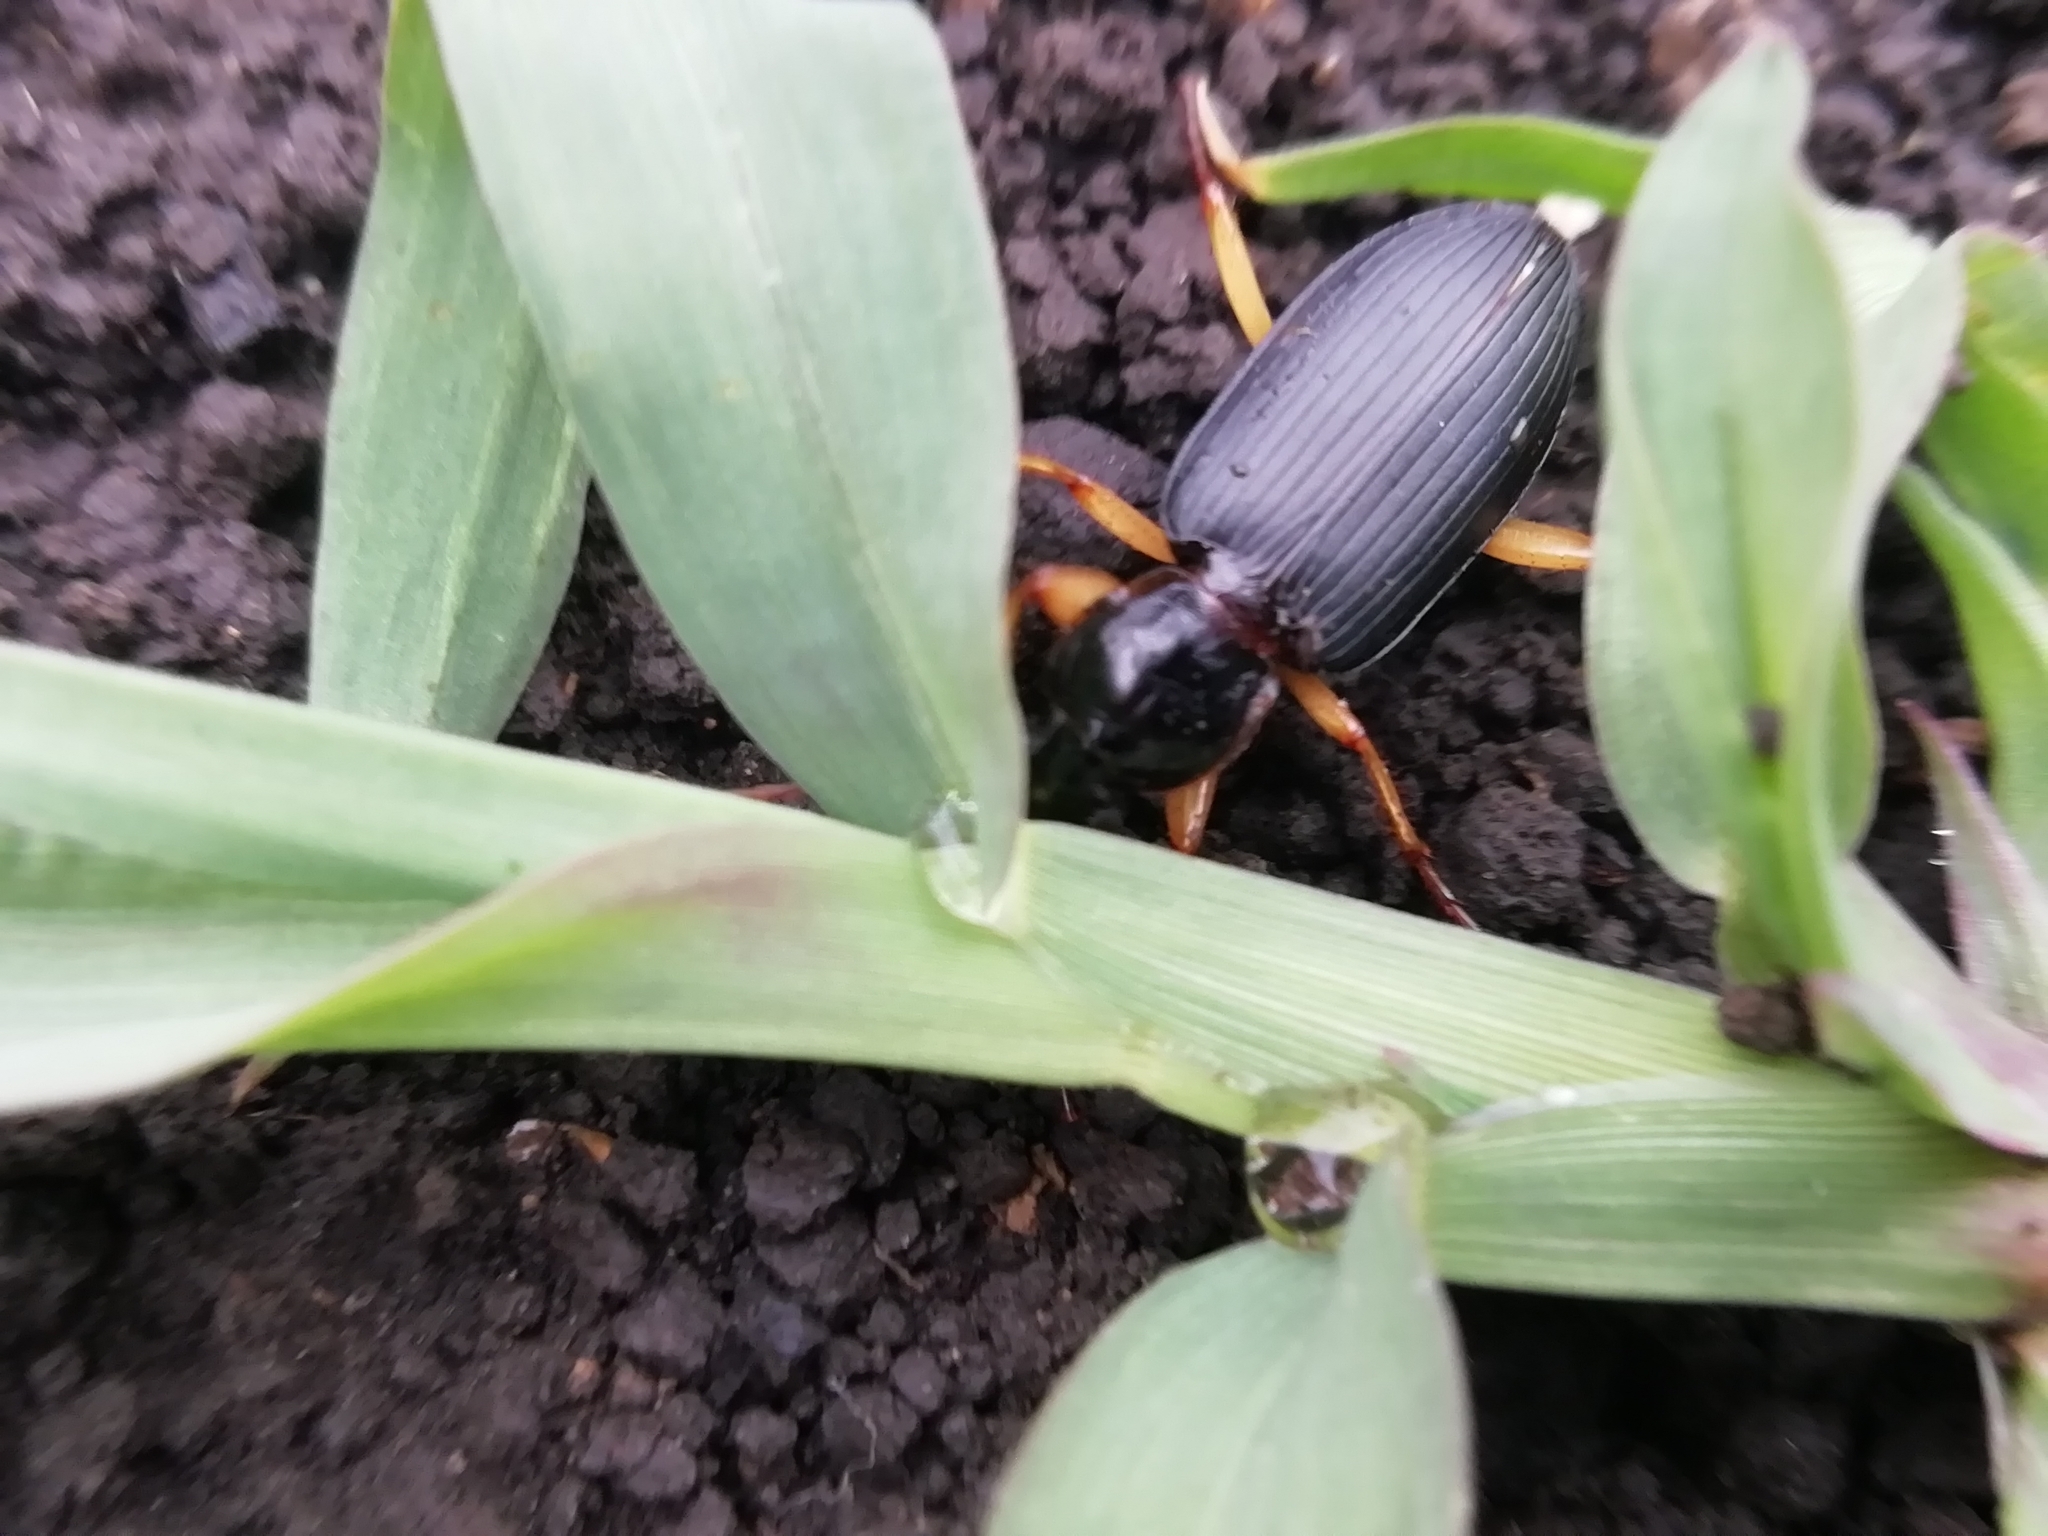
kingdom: Animalia
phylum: Arthropoda
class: Insecta
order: Coleoptera
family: Carabidae
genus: Dolichus
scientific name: Dolichus halensis
